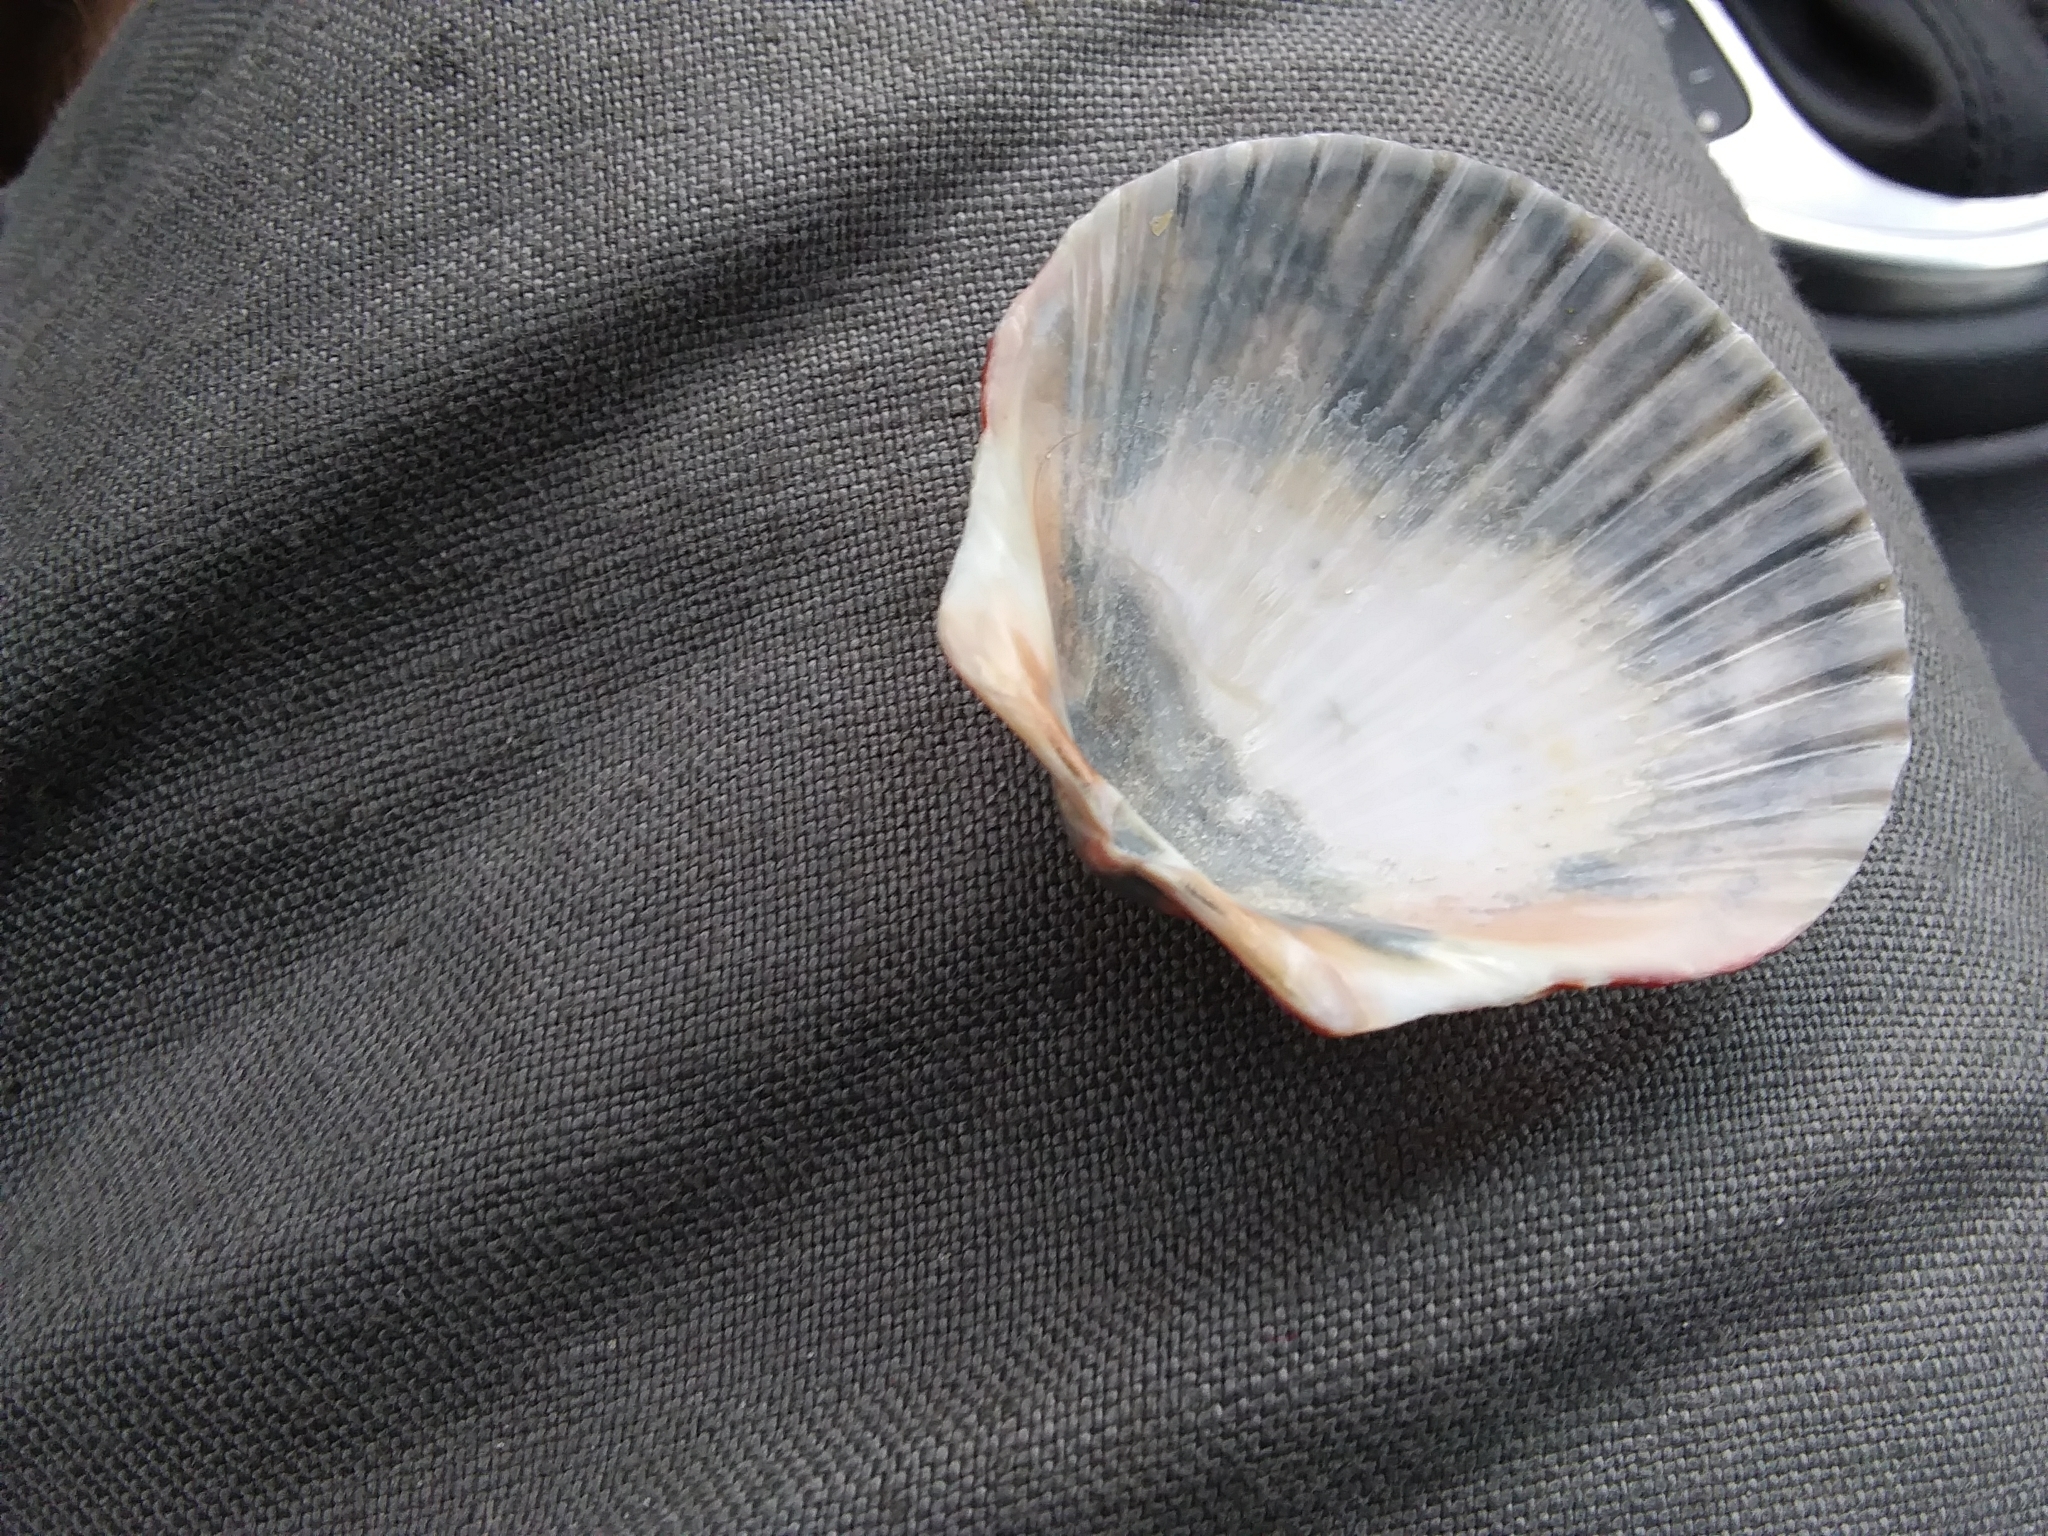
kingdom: Animalia
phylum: Mollusca
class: Bivalvia
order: Pectinida
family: Pectinidae
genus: Argopecten
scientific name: Argopecten gibbus
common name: Atlantic calico scallop
